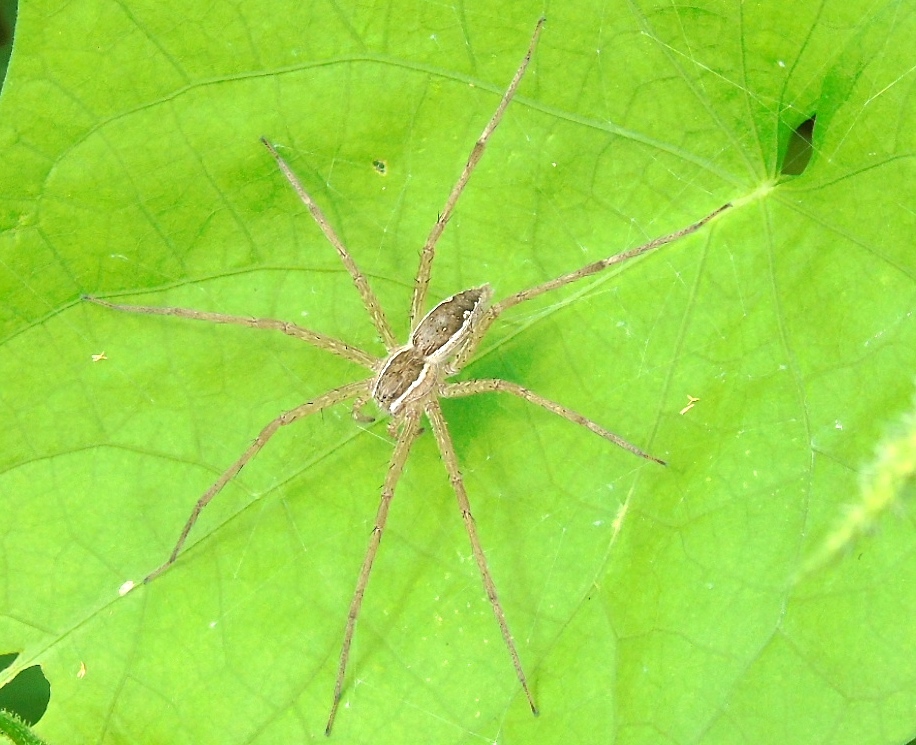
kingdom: Animalia
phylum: Arthropoda
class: Arachnida
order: Araneae
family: Pisauridae
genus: Tinus
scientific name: Tinus
